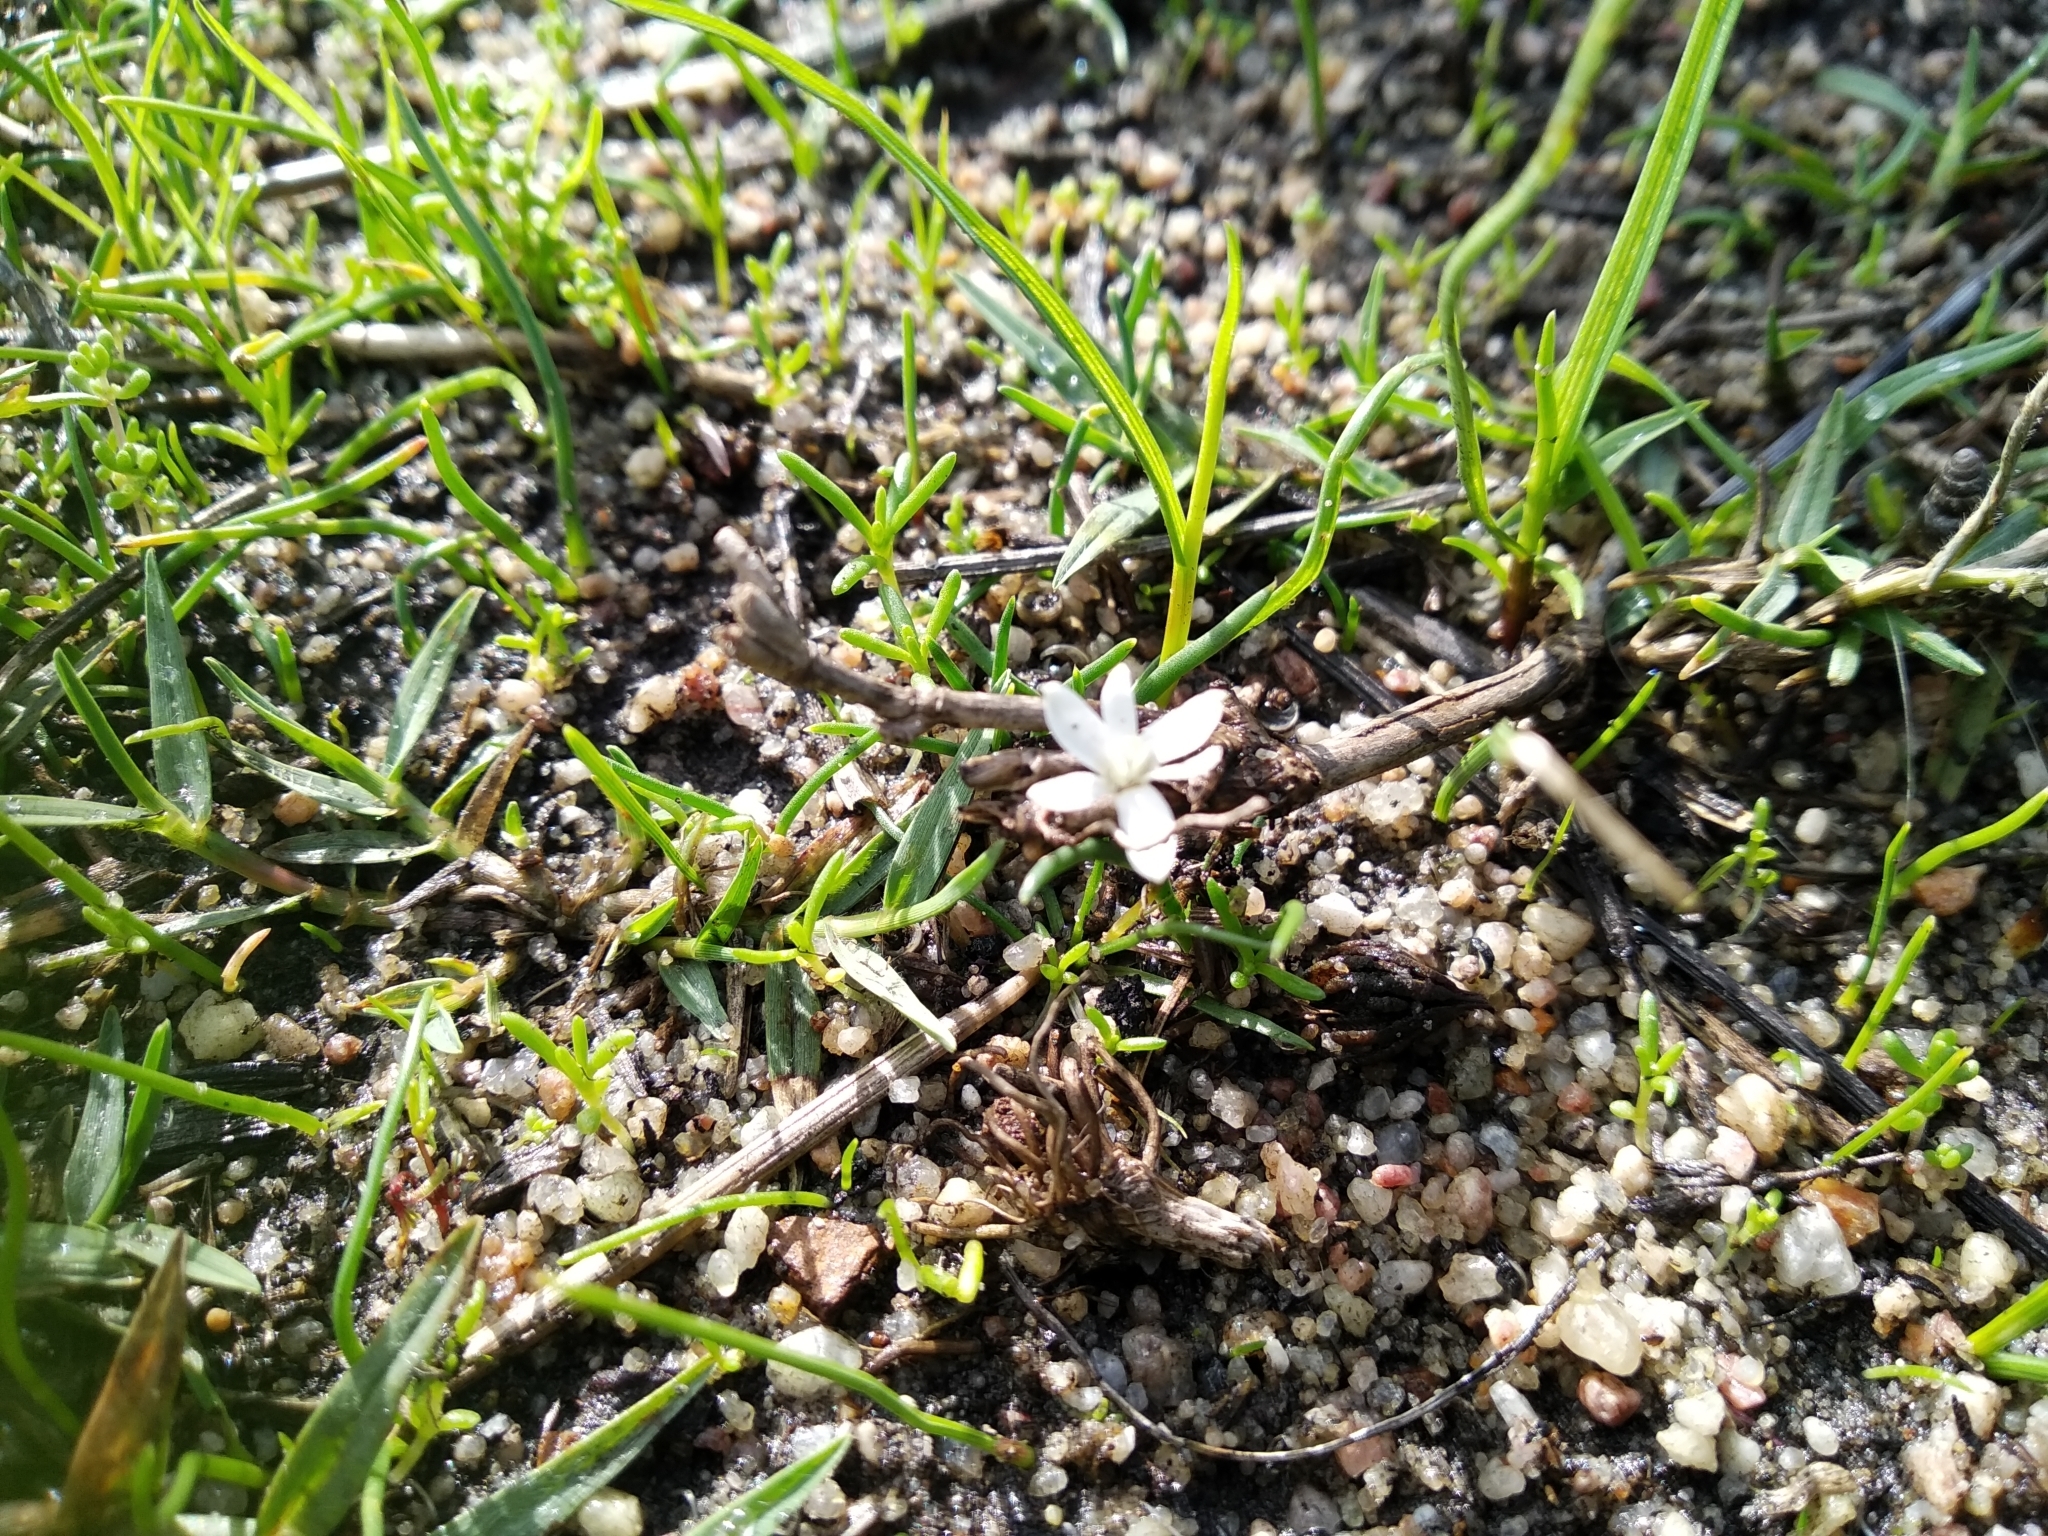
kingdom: Plantae
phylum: Tracheophyta
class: Liliopsida
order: Asparagales
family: Hypoxidaceae
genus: Pauridia
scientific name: Pauridia minuta
